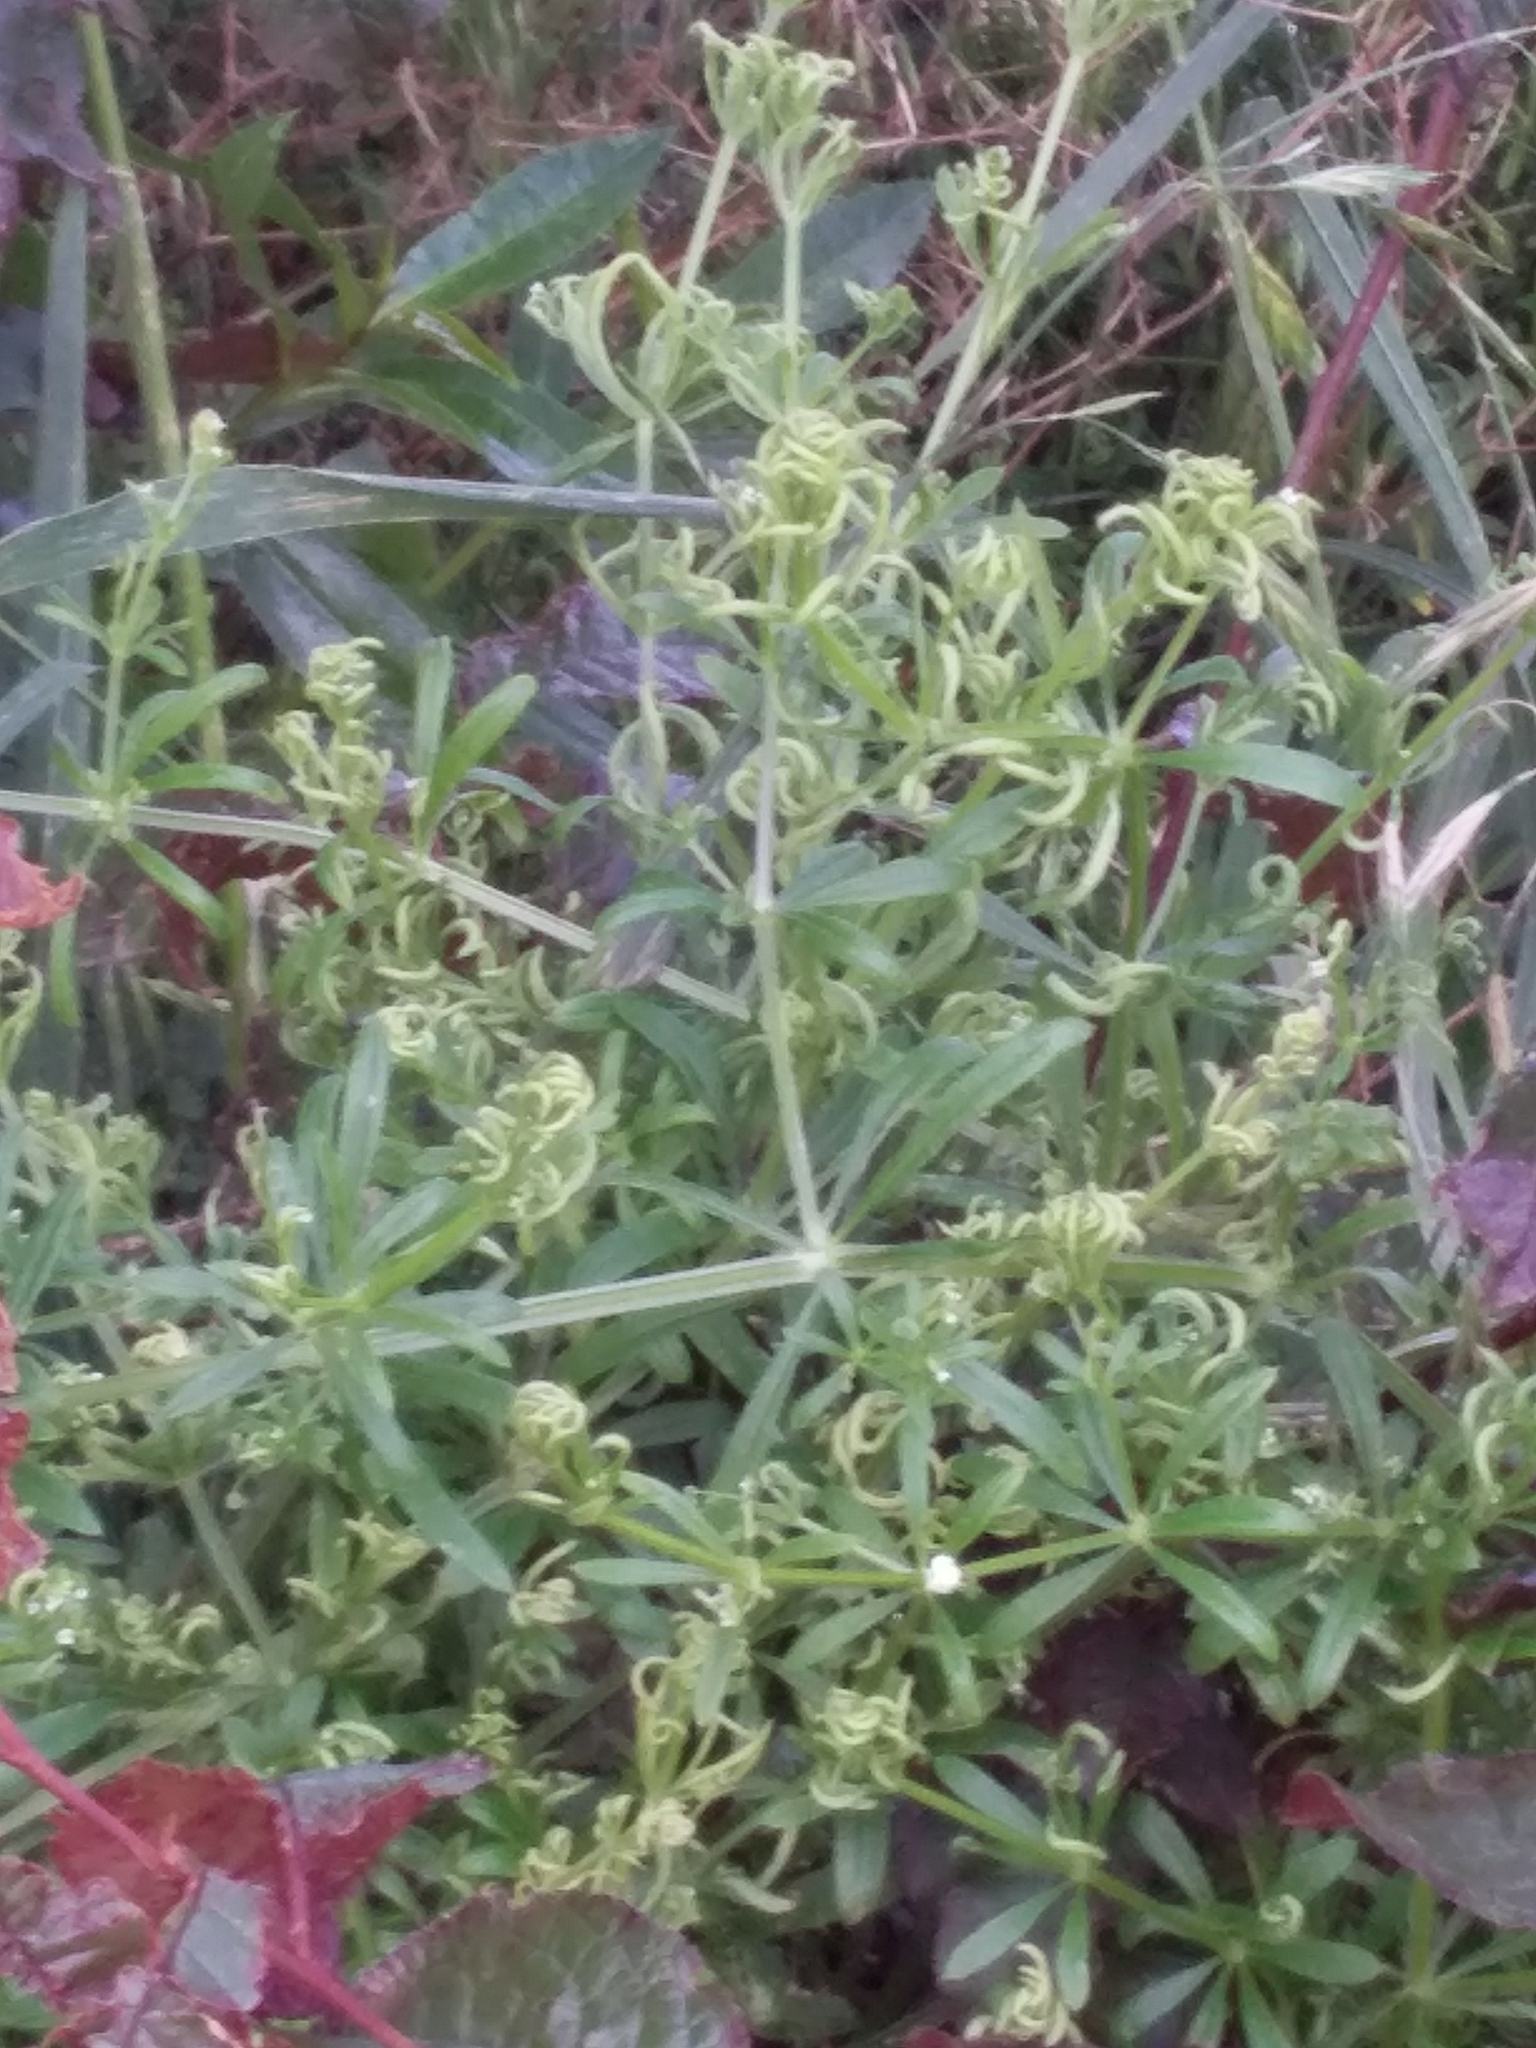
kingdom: Plantae
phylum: Tracheophyta
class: Magnoliopsida
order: Gentianales
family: Rubiaceae
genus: Galium
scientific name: Galium aparine
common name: Cleavers
